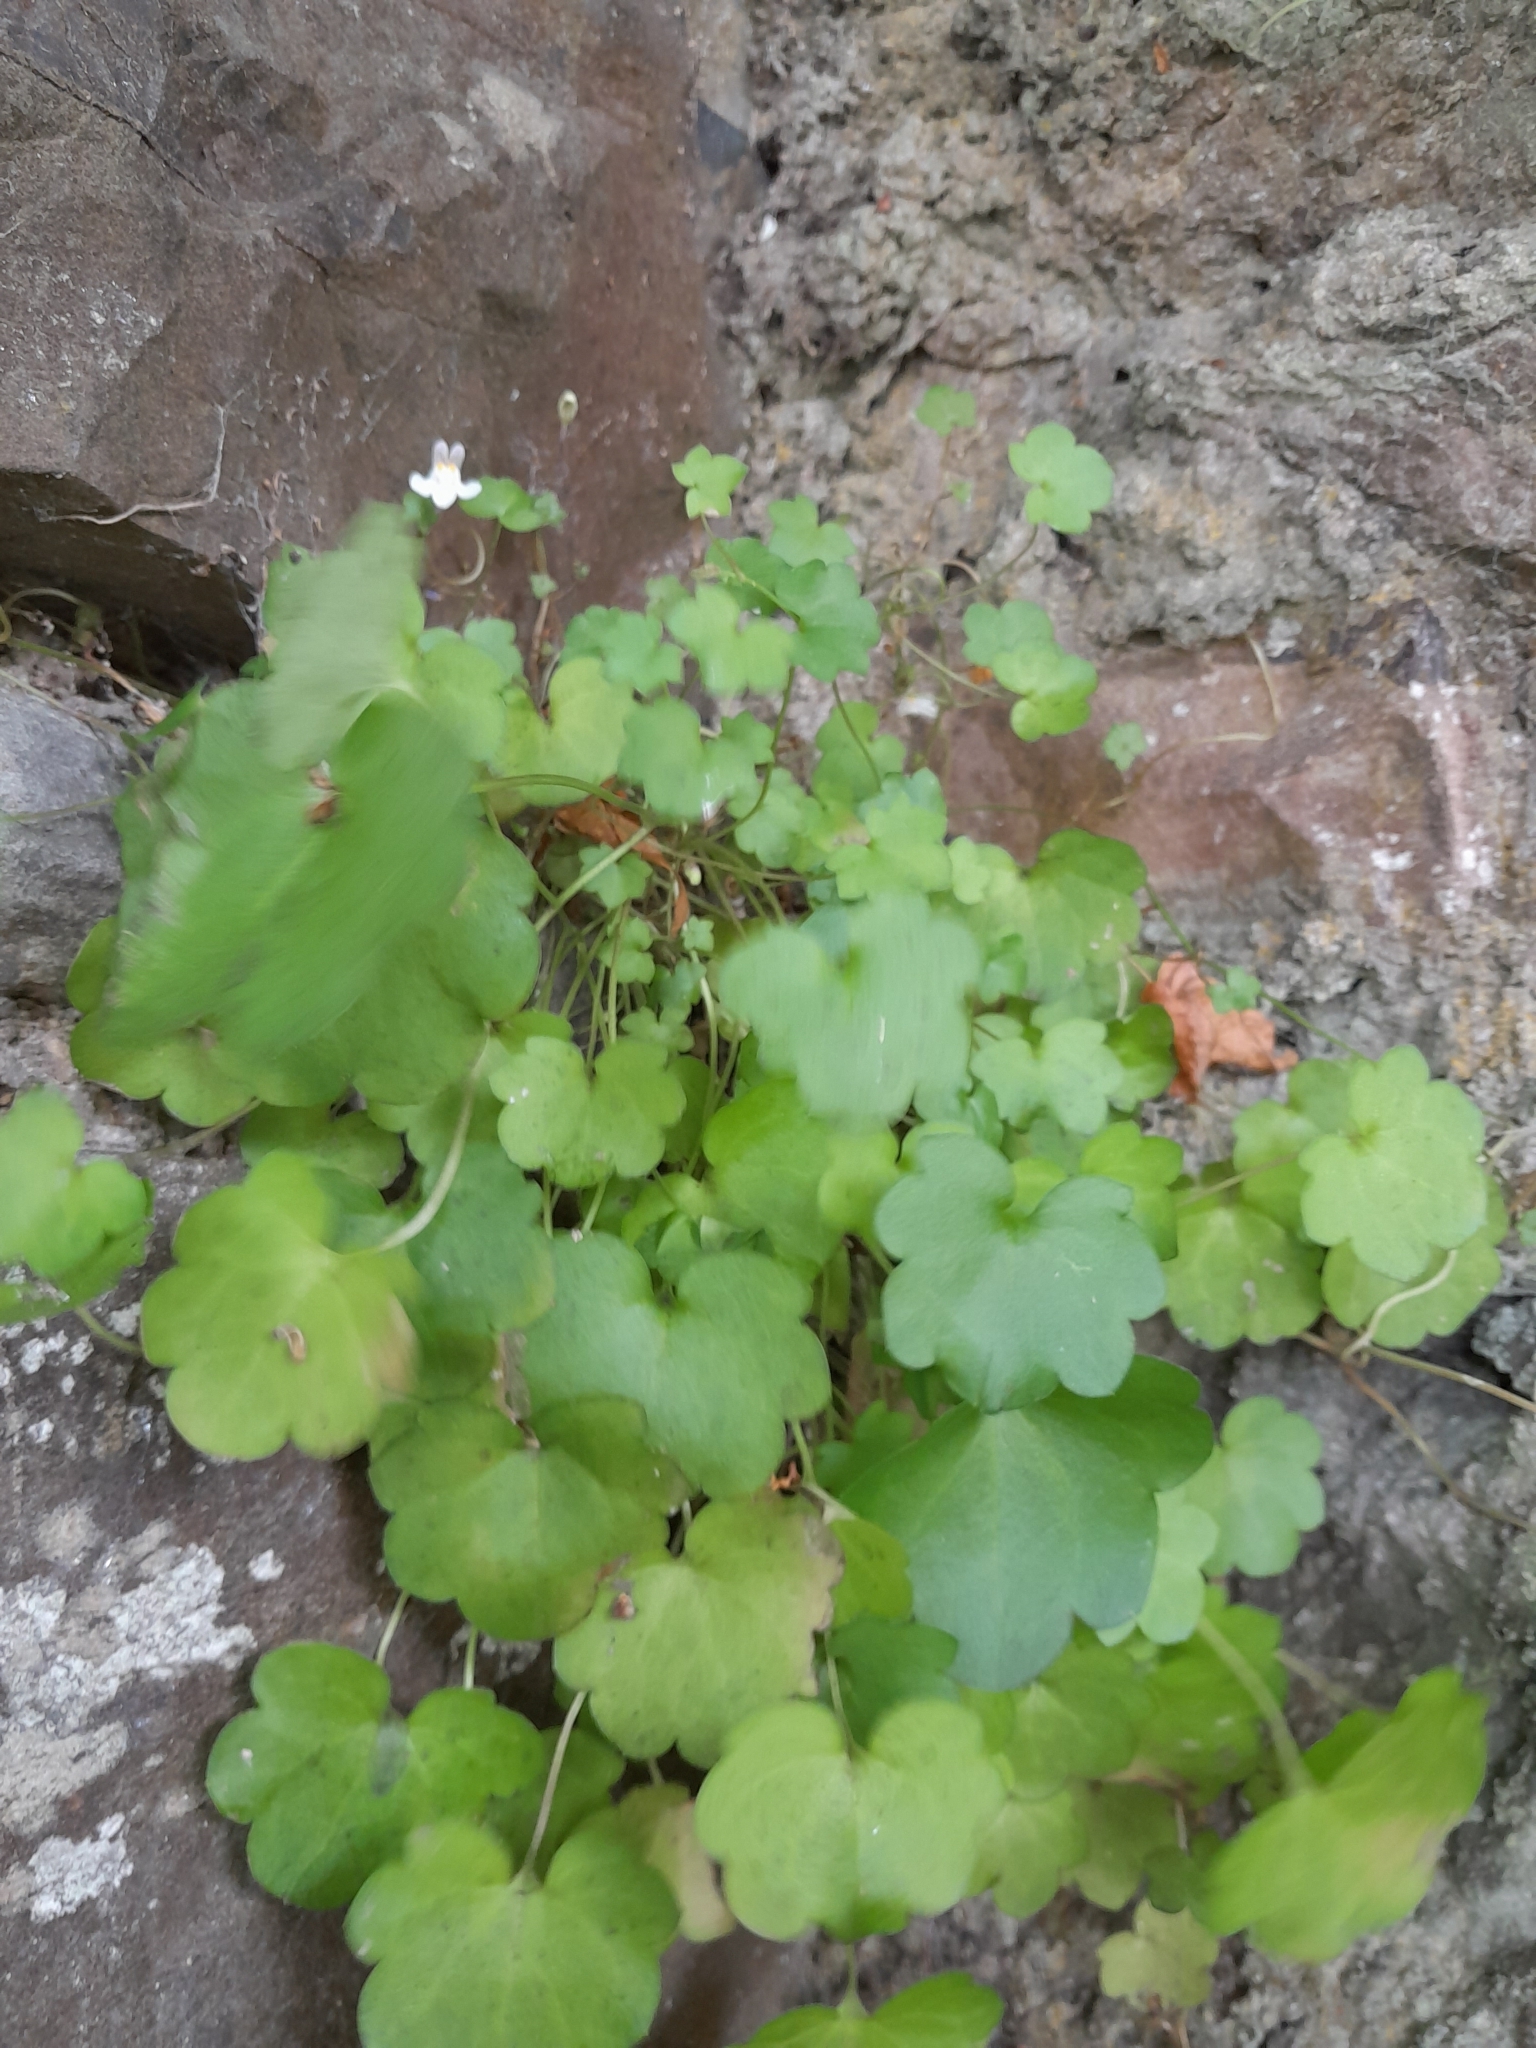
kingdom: Plantae
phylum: Tracheophyta
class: Magnoliopsida
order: Lamiales
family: Plantaginaceae
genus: Cymbalaria
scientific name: Cymbalaria muralis
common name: Ivy-leaved toadflax
